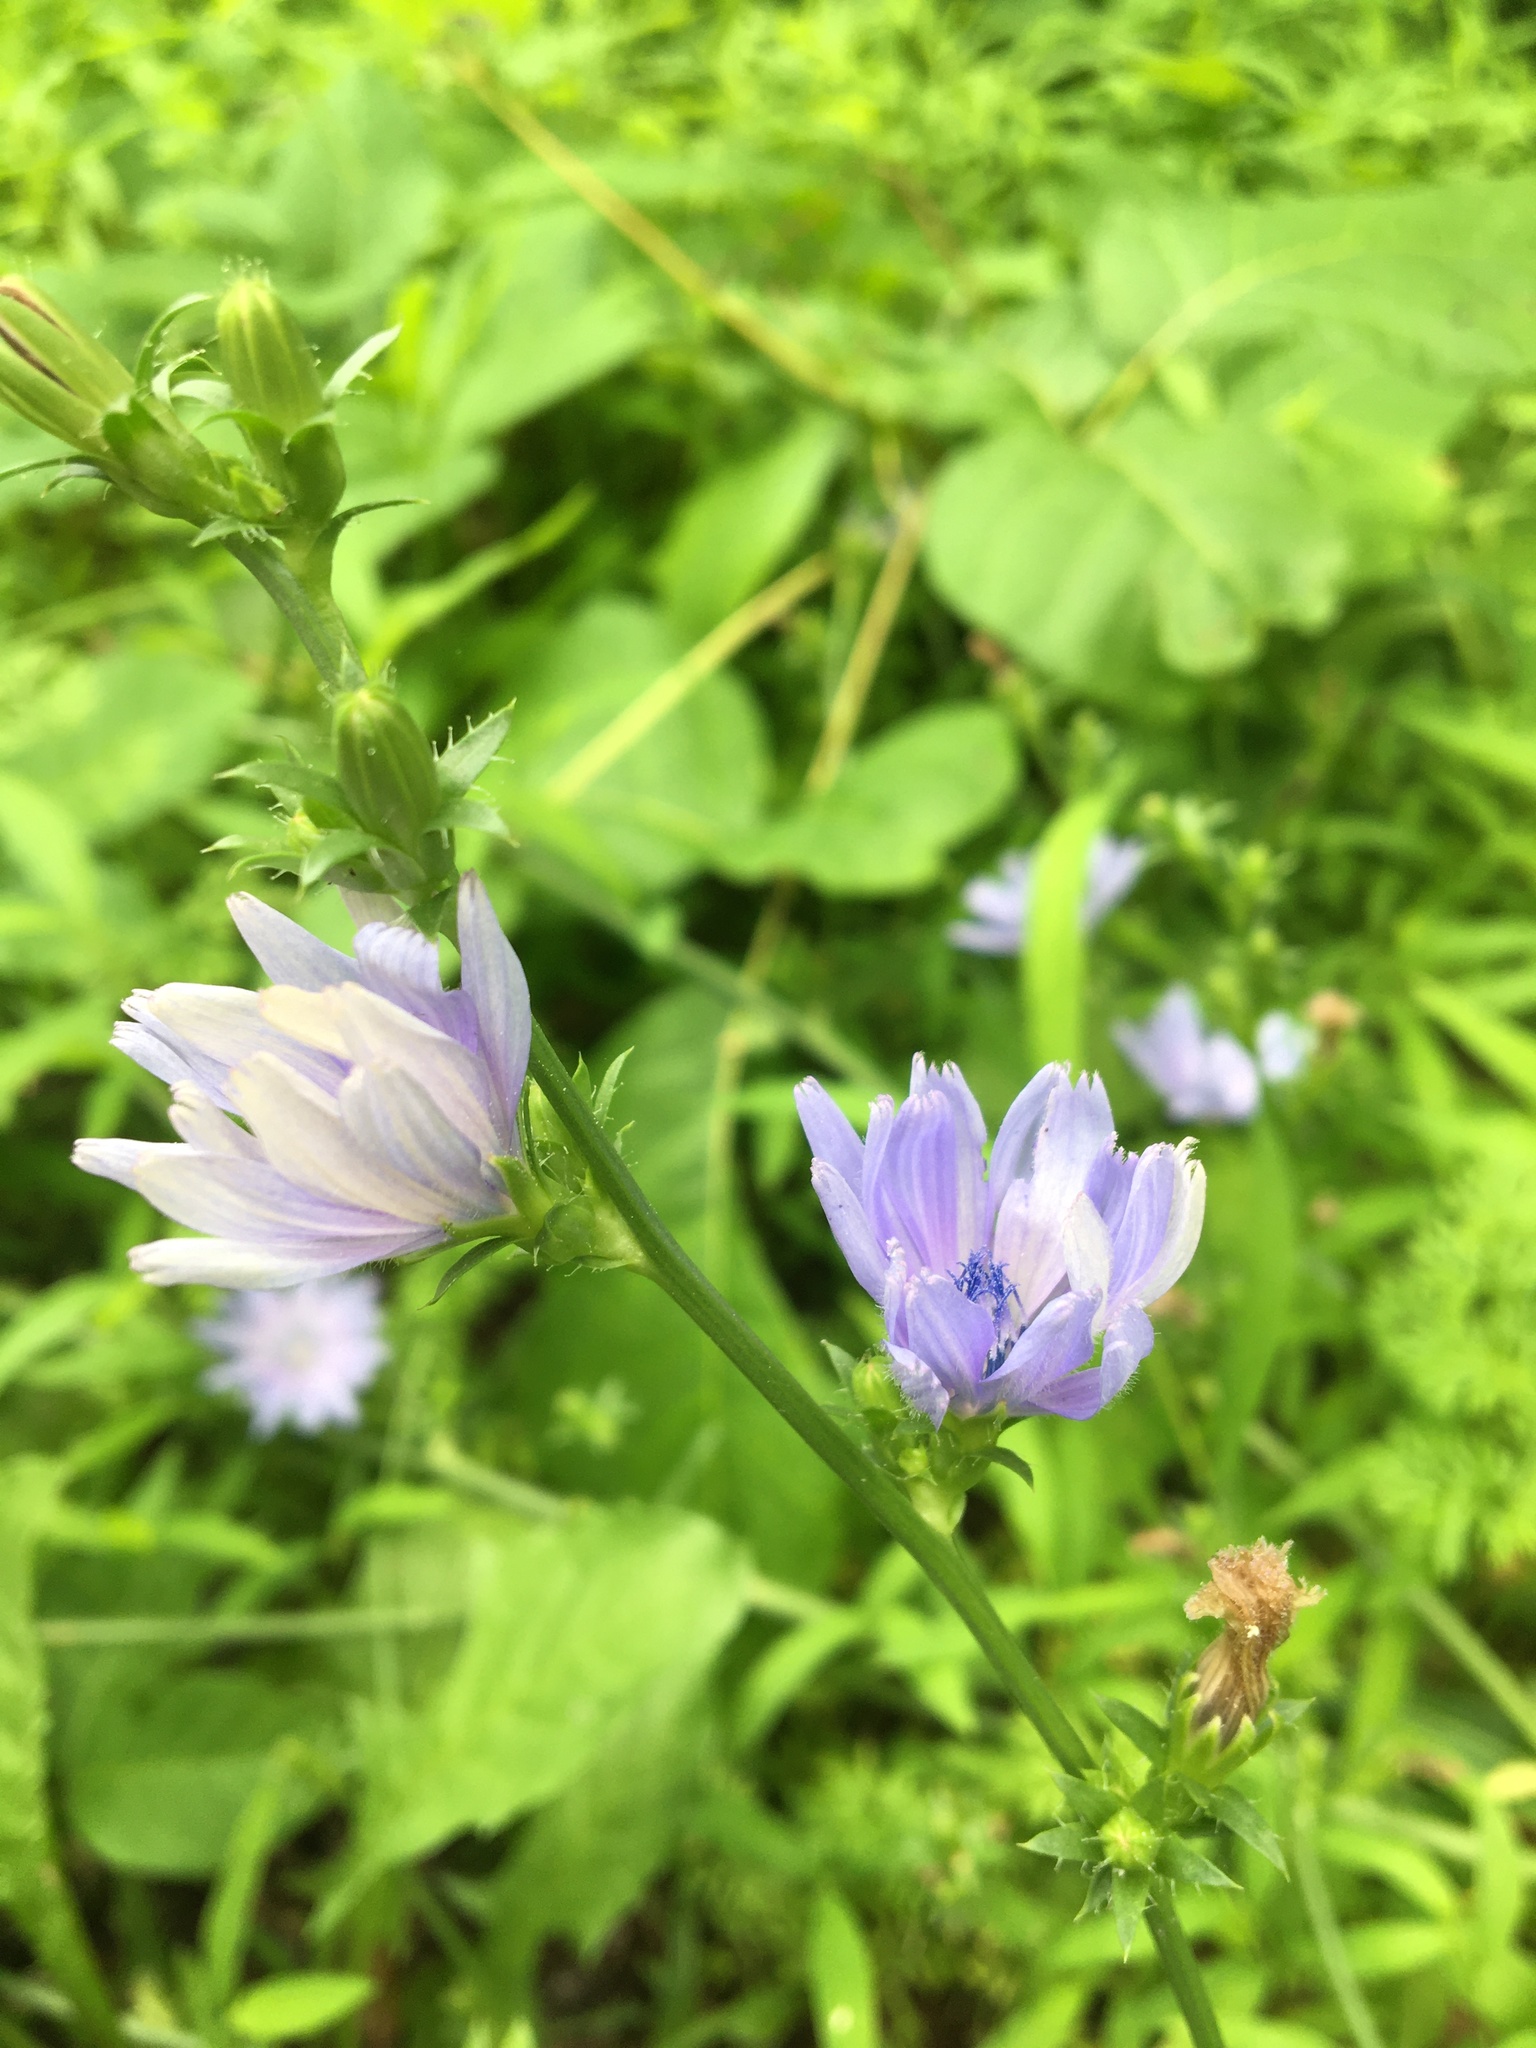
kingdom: Plantae
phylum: Tracheophyta
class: Magnoliopsida
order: Asterales
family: Asteraceae
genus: Cichorium
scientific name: Cichorium intybus
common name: Chicory
